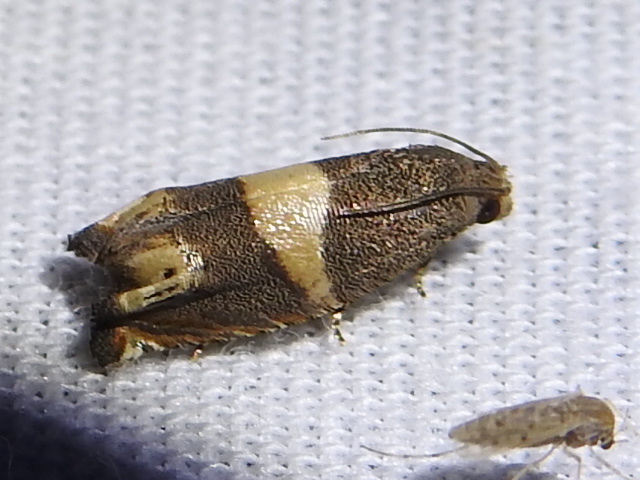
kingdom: Animalia
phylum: Arthropoda
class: Insecta
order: Lepidoptera
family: Tortricidae
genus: Epiblema
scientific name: Epiblema
